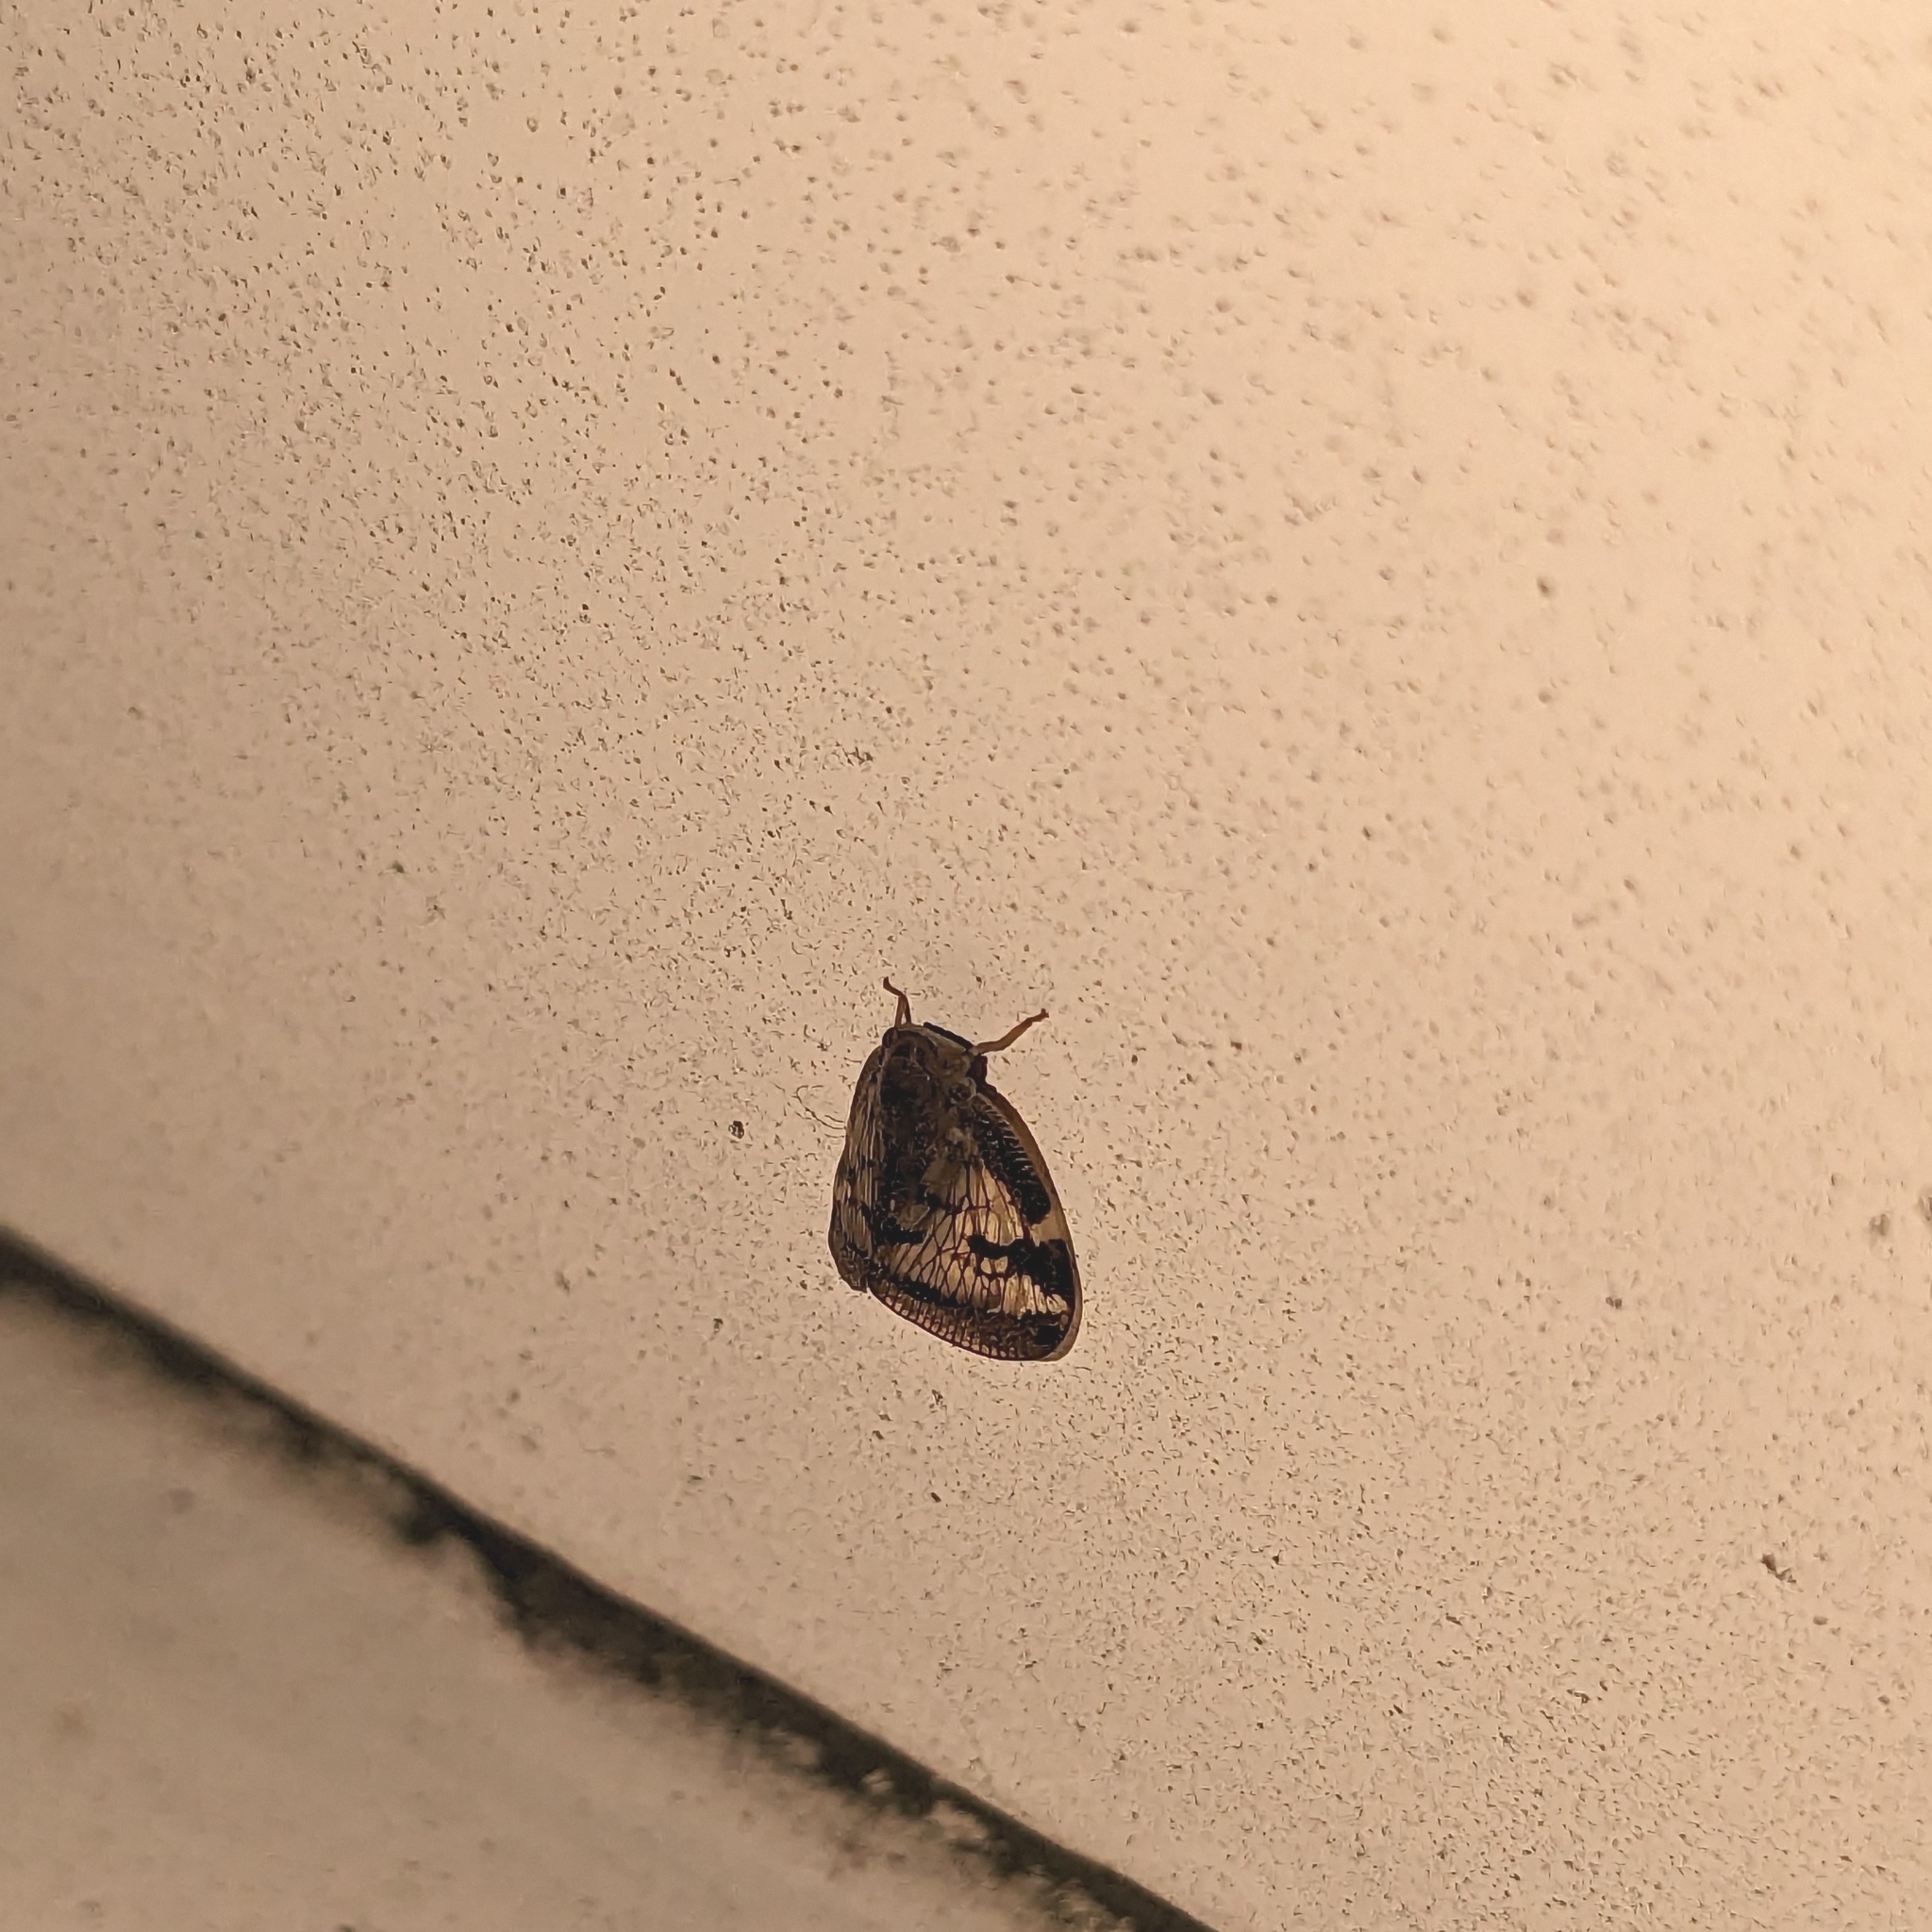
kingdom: Animalia
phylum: Arthropoda
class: Insecta
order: Hemiptera
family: Ricaniidae
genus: Scolypopa
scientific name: Scolypopa australis
